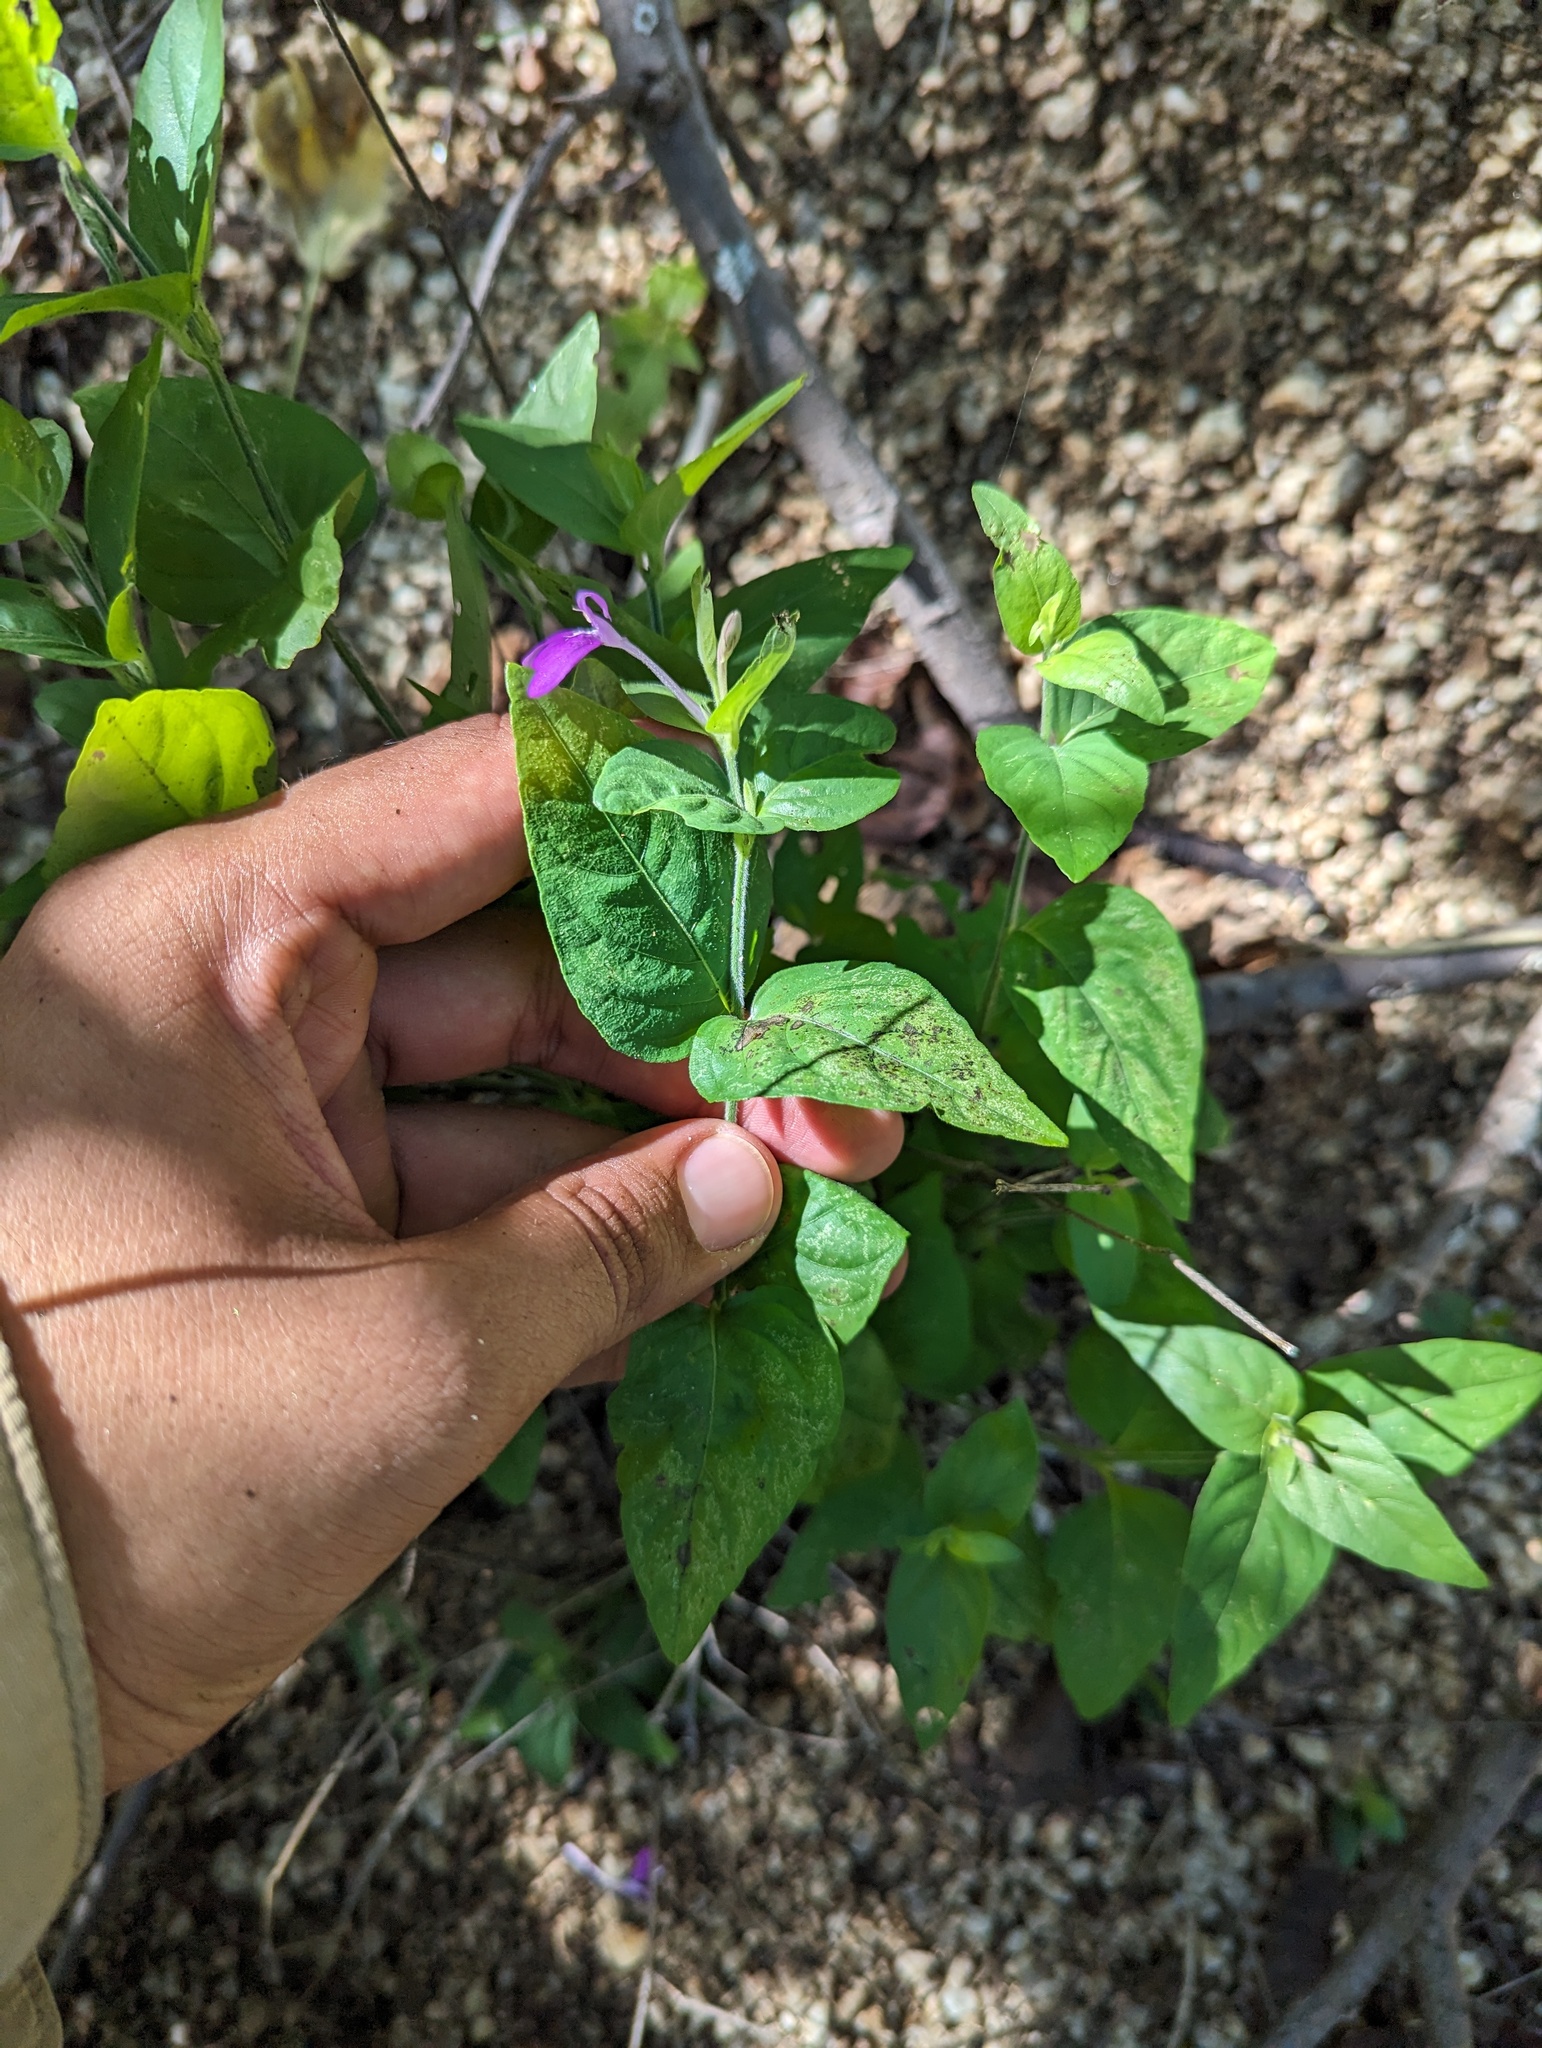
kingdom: Plantae
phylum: Tracheophyta
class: Magnoliopsida
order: Lamiales
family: Acanthaceae
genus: Dianthera
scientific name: Dianthera incerta
